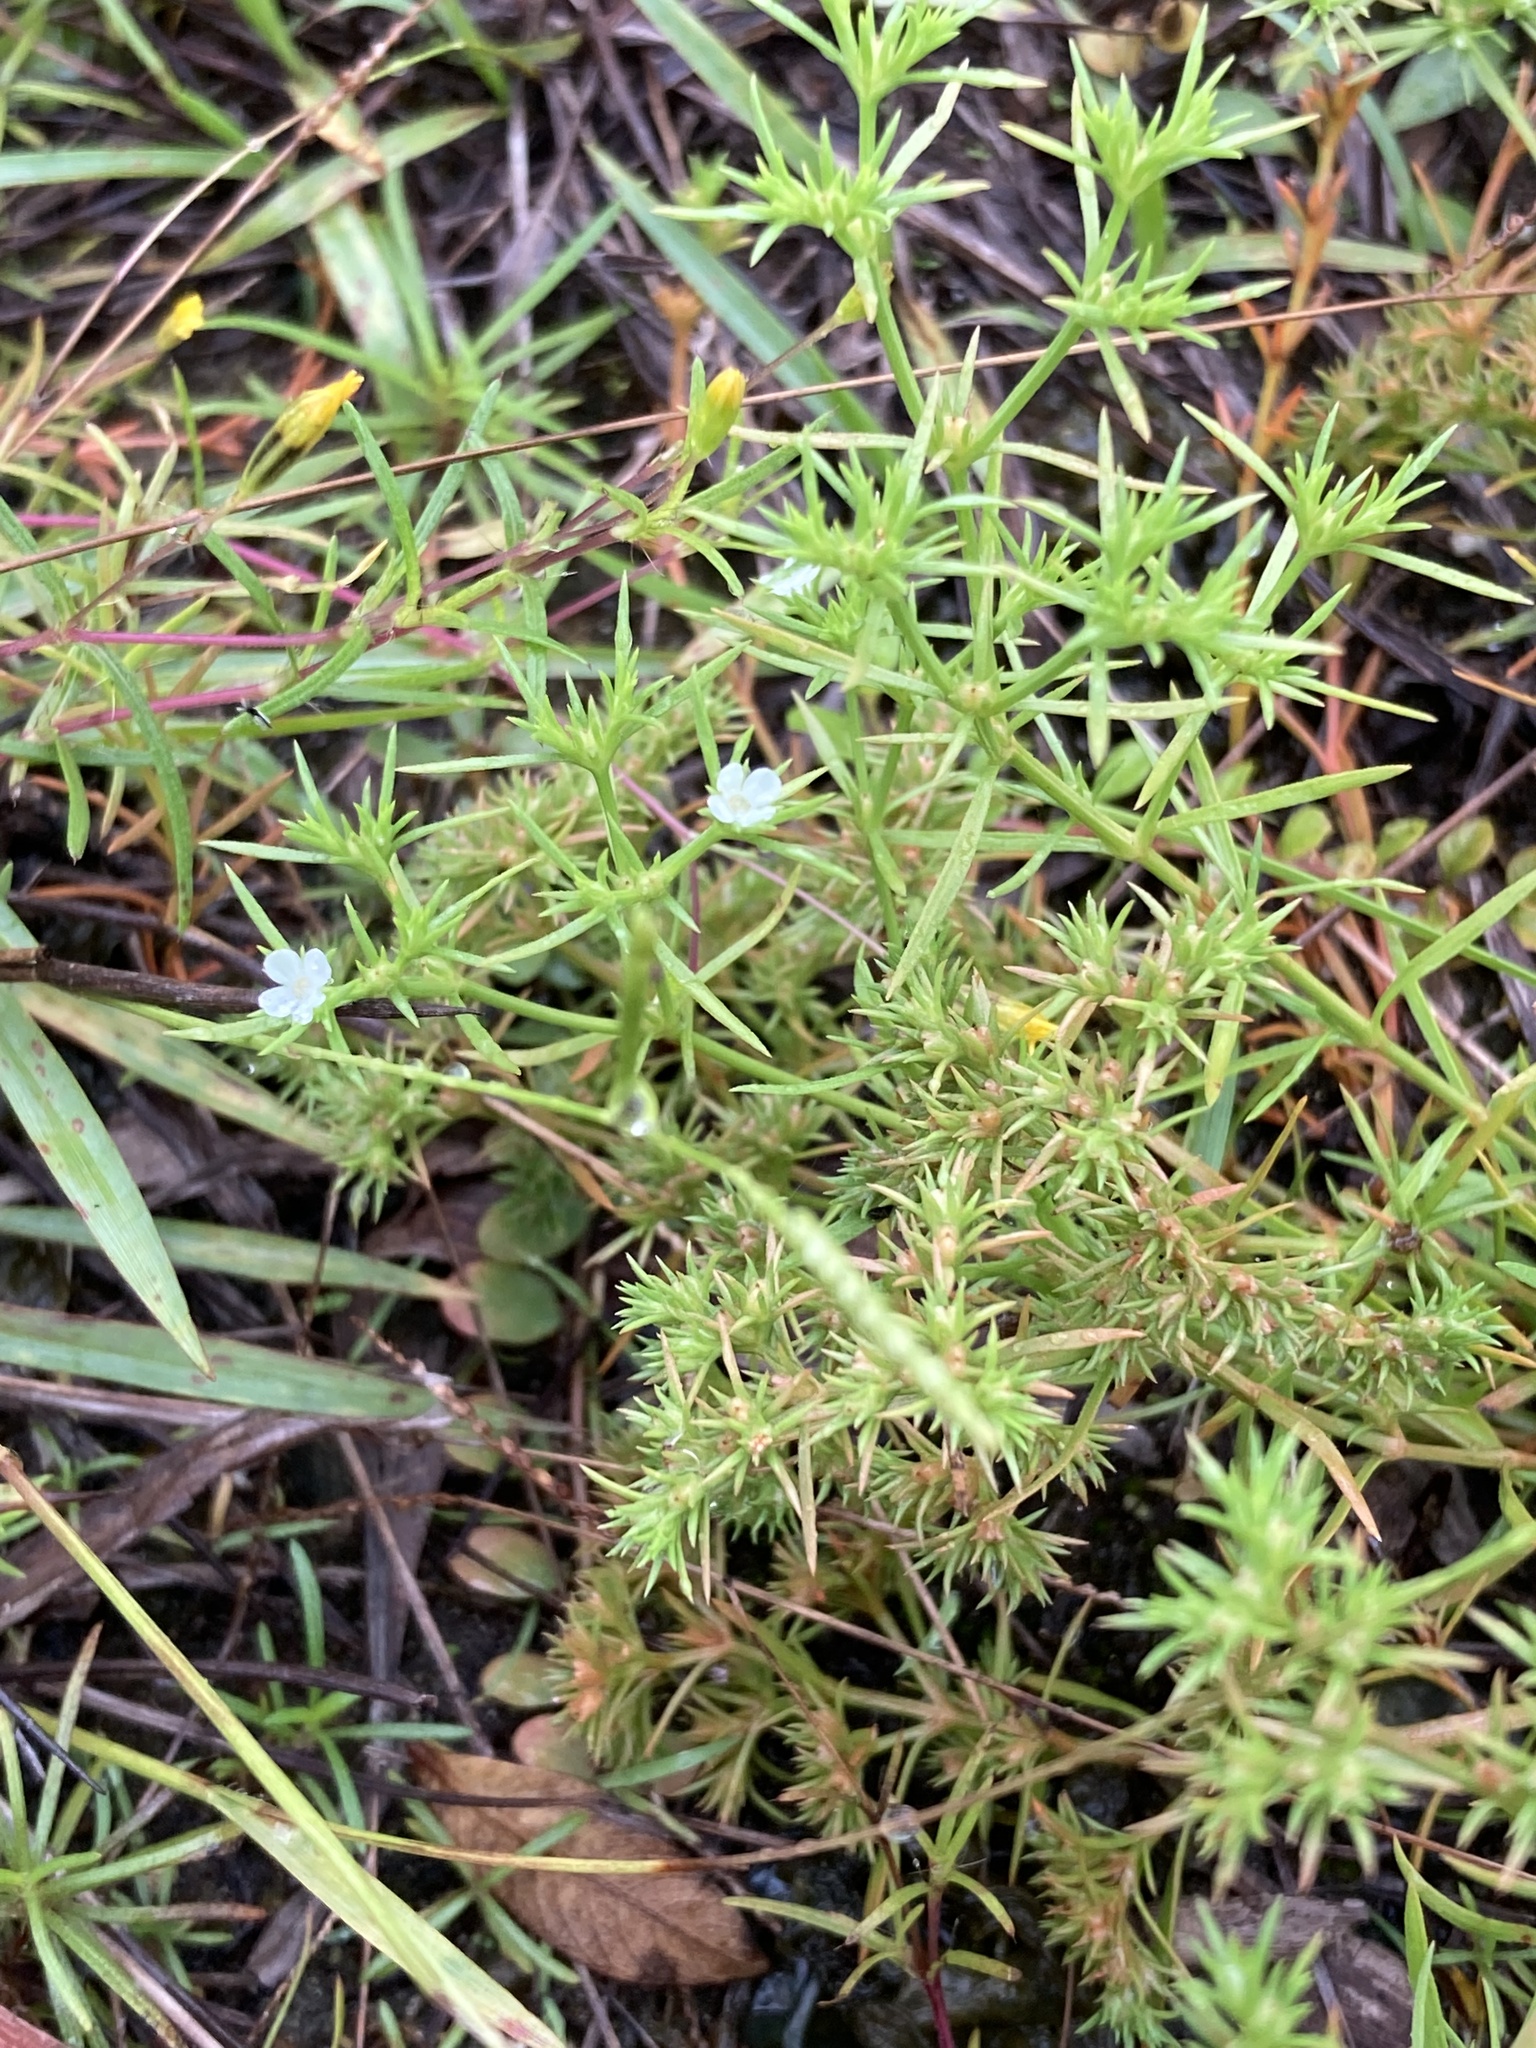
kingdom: Plantae
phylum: Tracheophyta
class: Magnoliopsida
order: Lamiales
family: Tetrachondraceae
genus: Polypremum
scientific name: Polypremum procumbens
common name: Juniper-leaf
